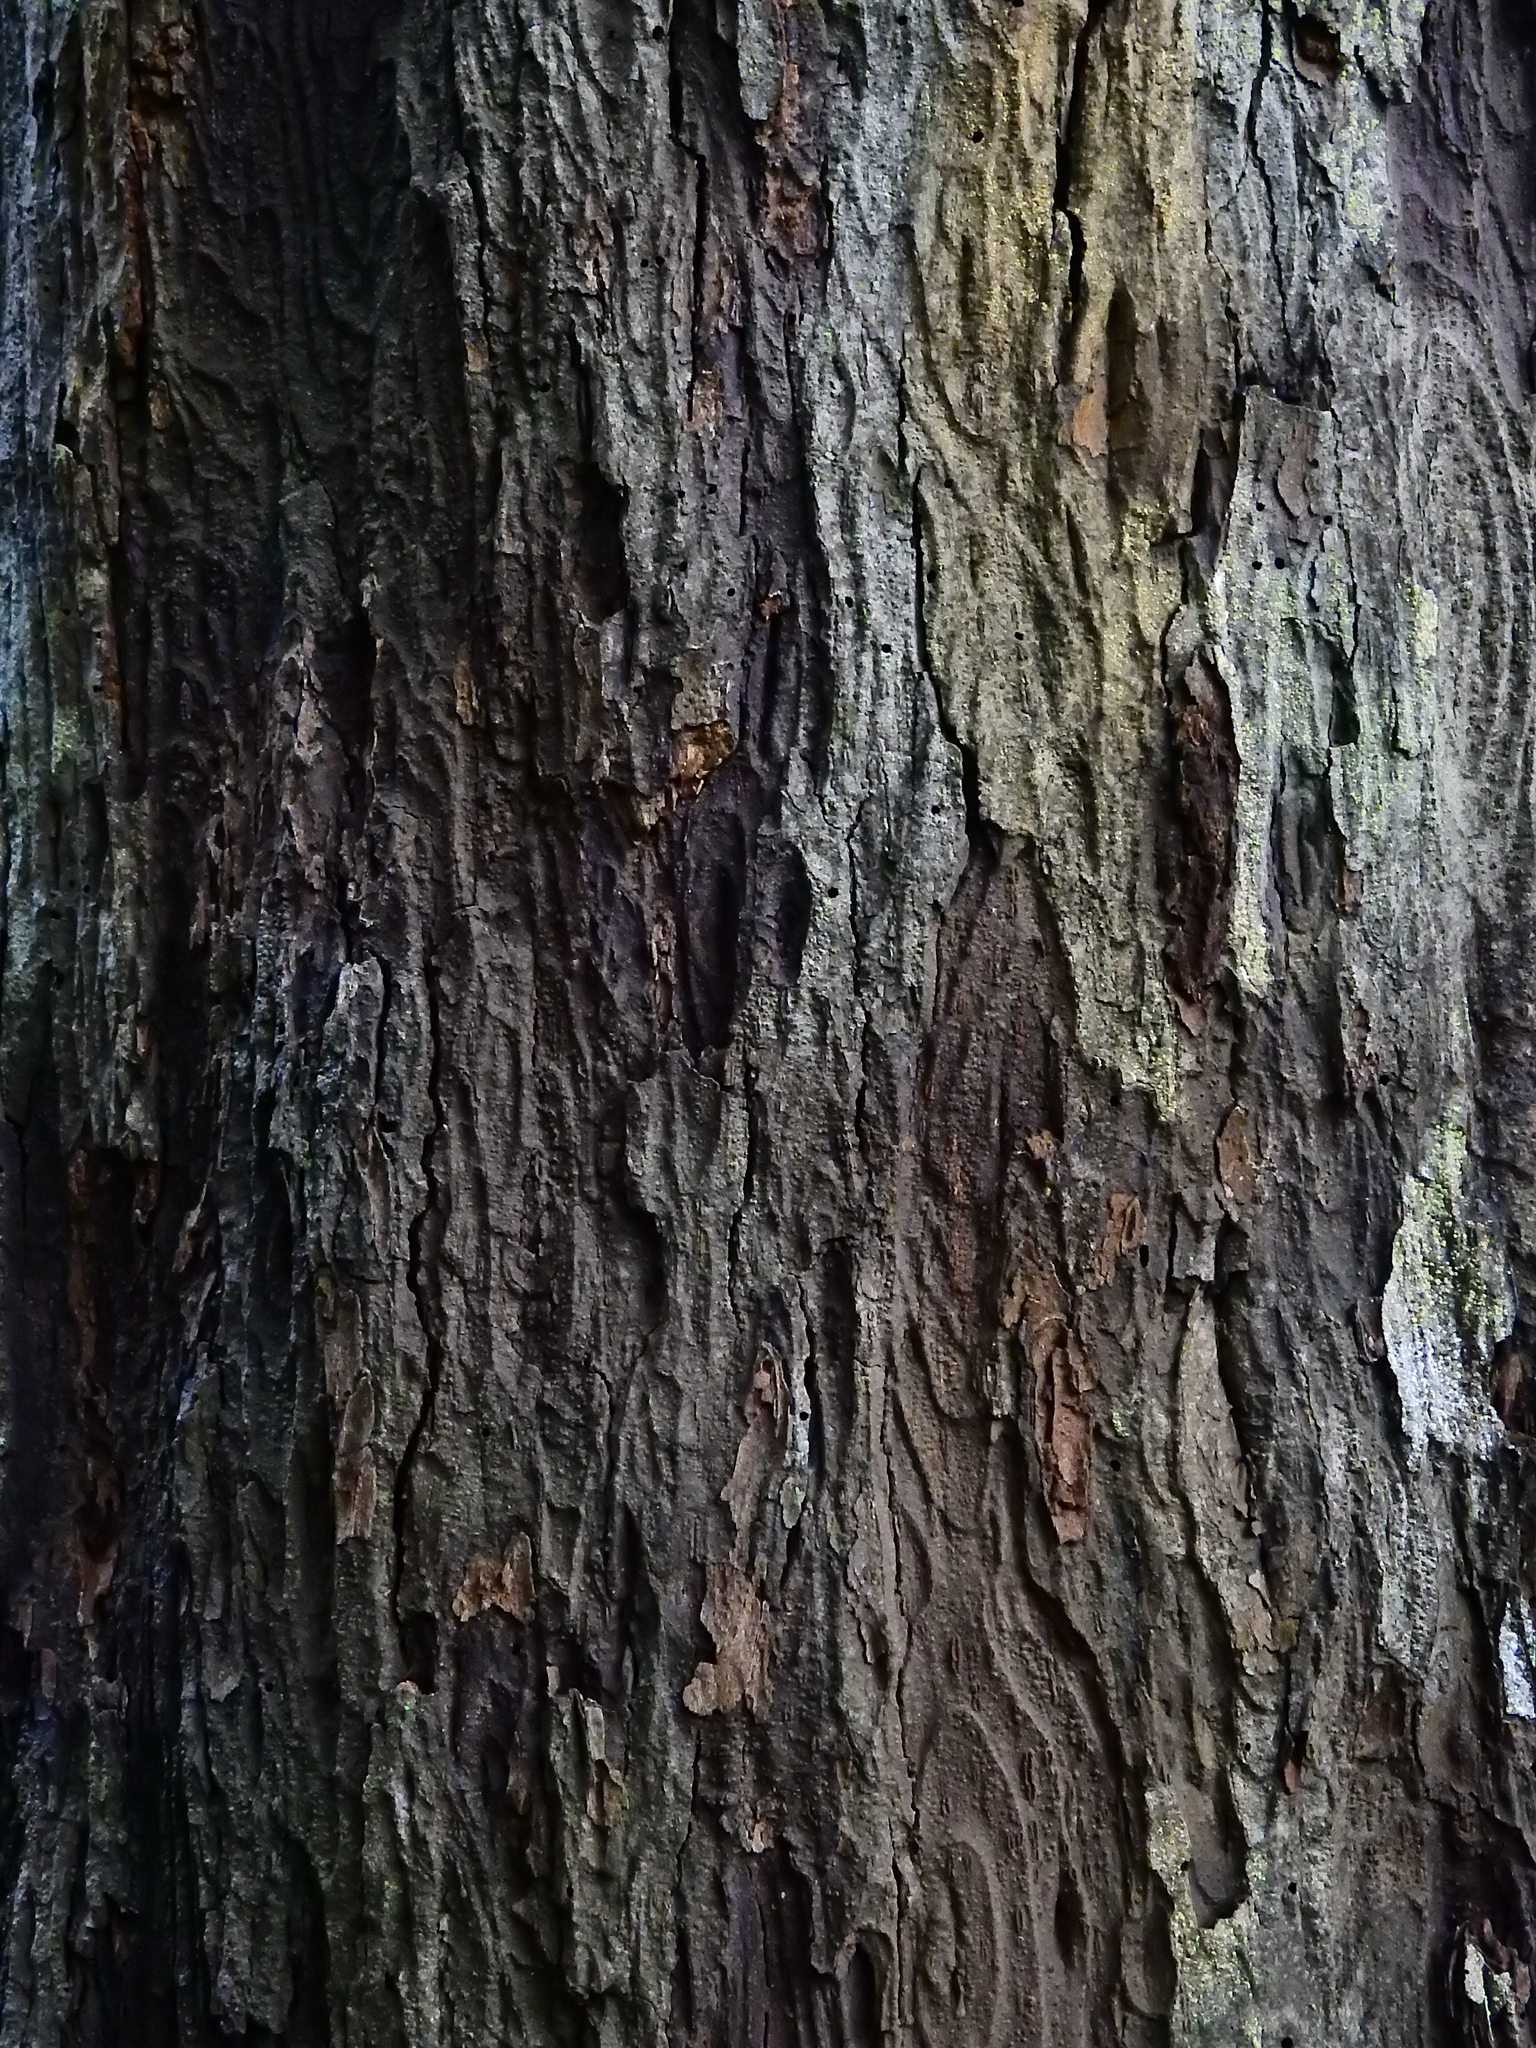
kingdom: Plantae
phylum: Tracheophyta
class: Pinopsida
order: Pinales
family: Podocarpaceae
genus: Dacrydium
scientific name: Dacrydium cupressinum
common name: Red pine
